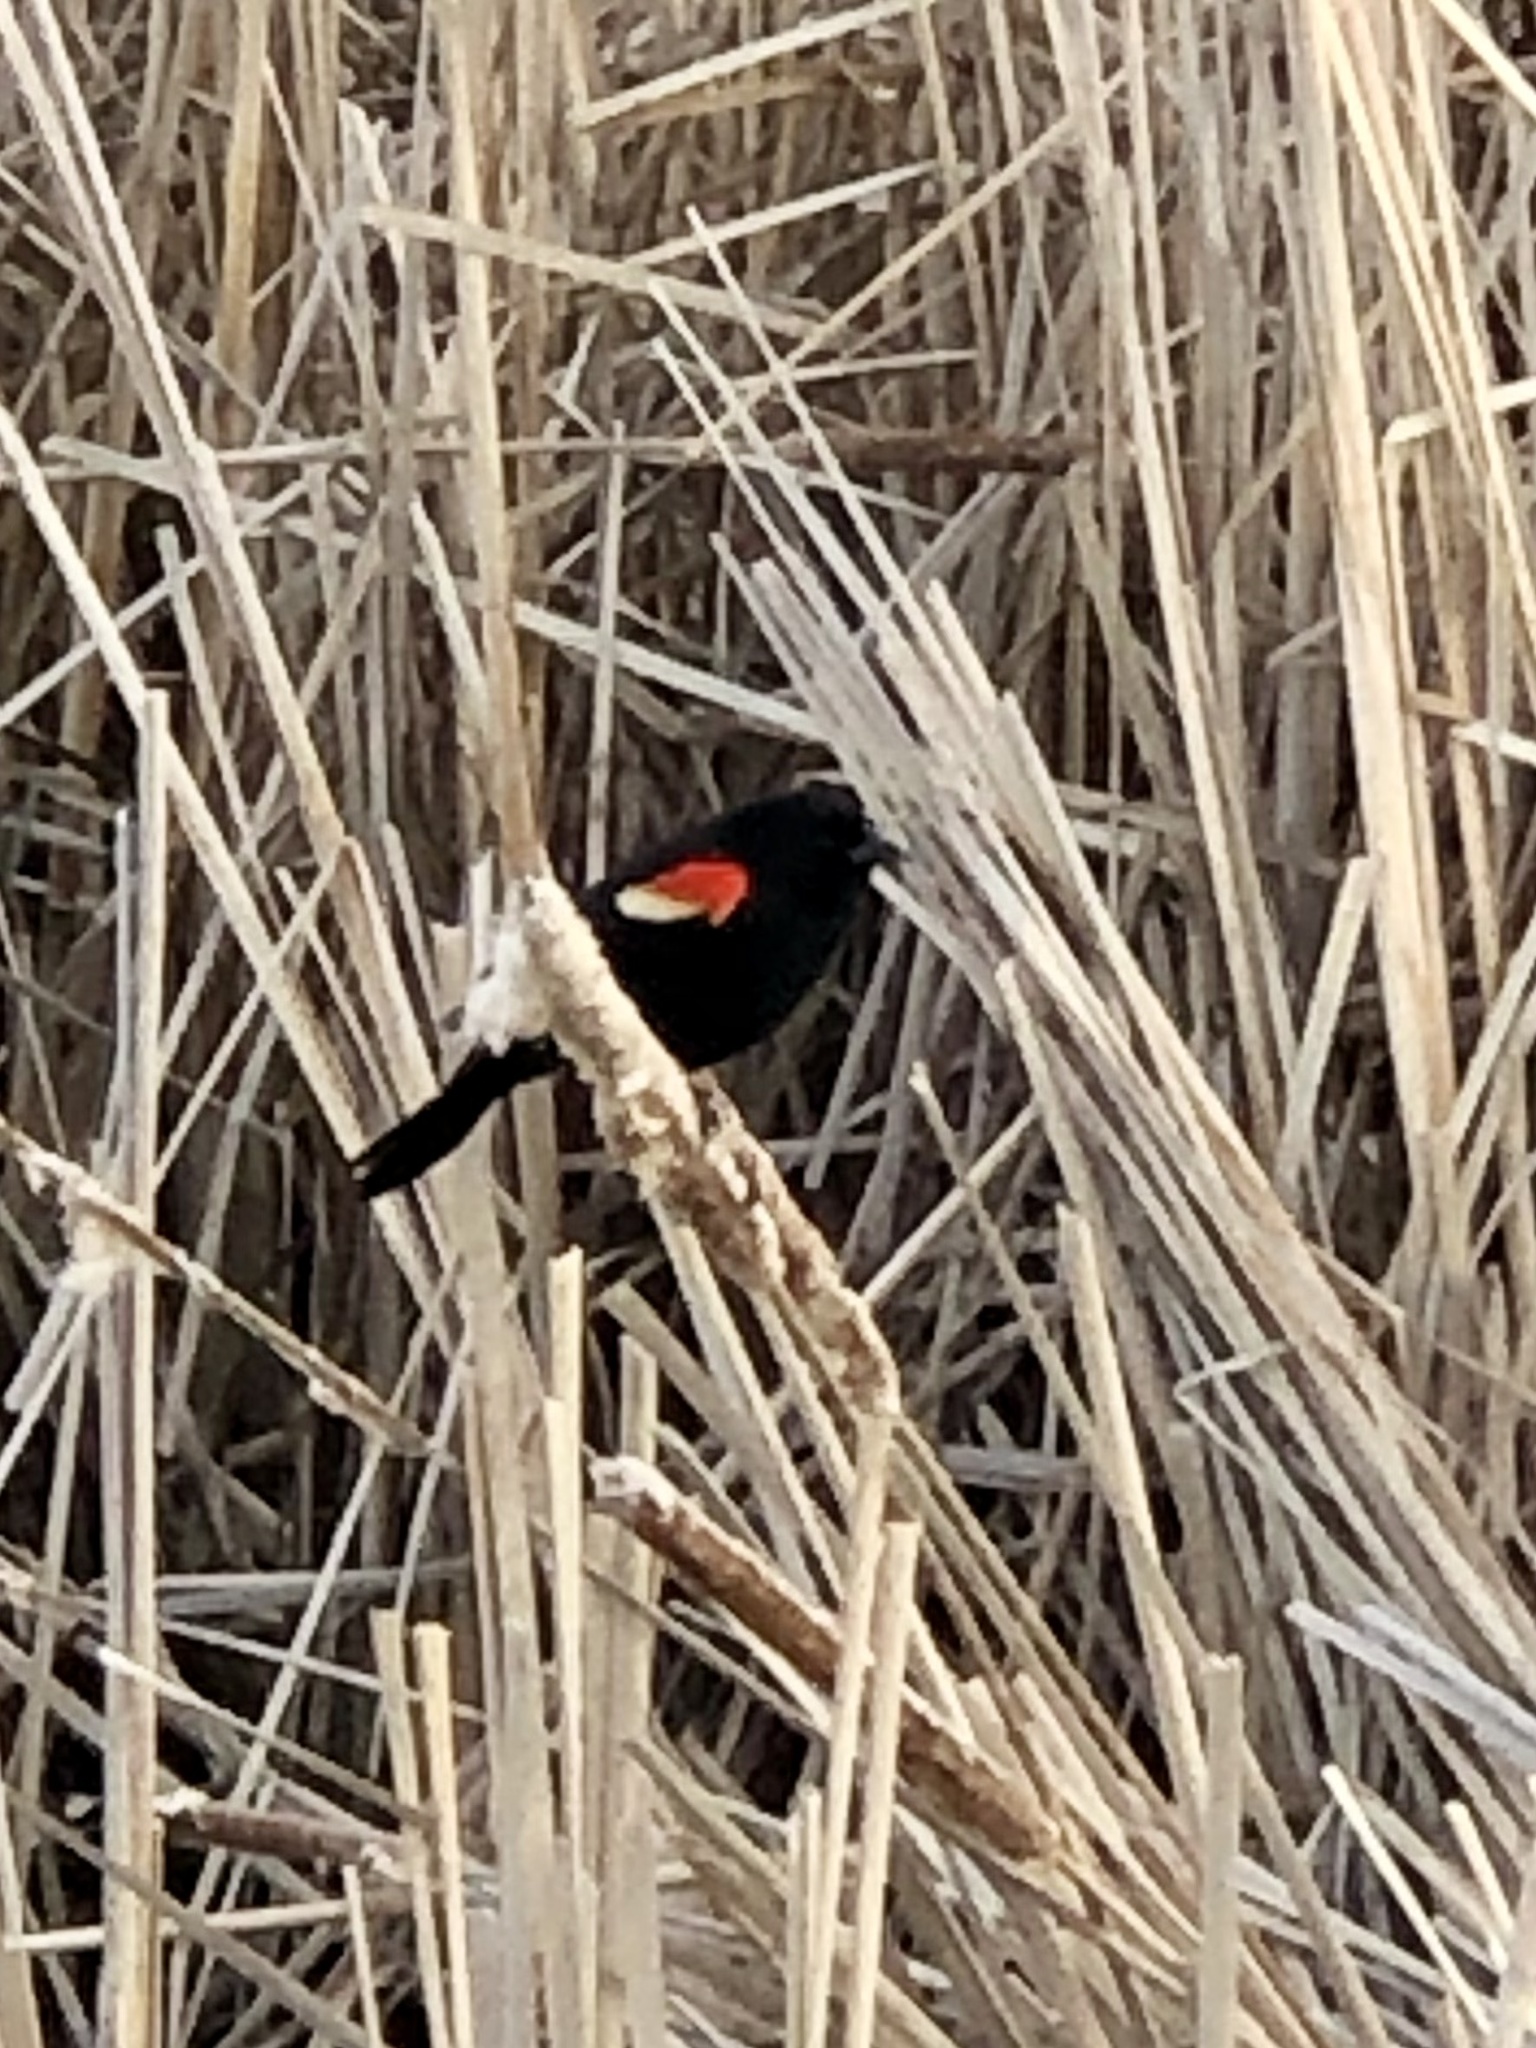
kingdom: Animalia
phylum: Chordata
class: Aves
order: Passeriformes
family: Icteridae
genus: Agelaius
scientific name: Agelaius phoeniceus
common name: Red-winged blackbird
